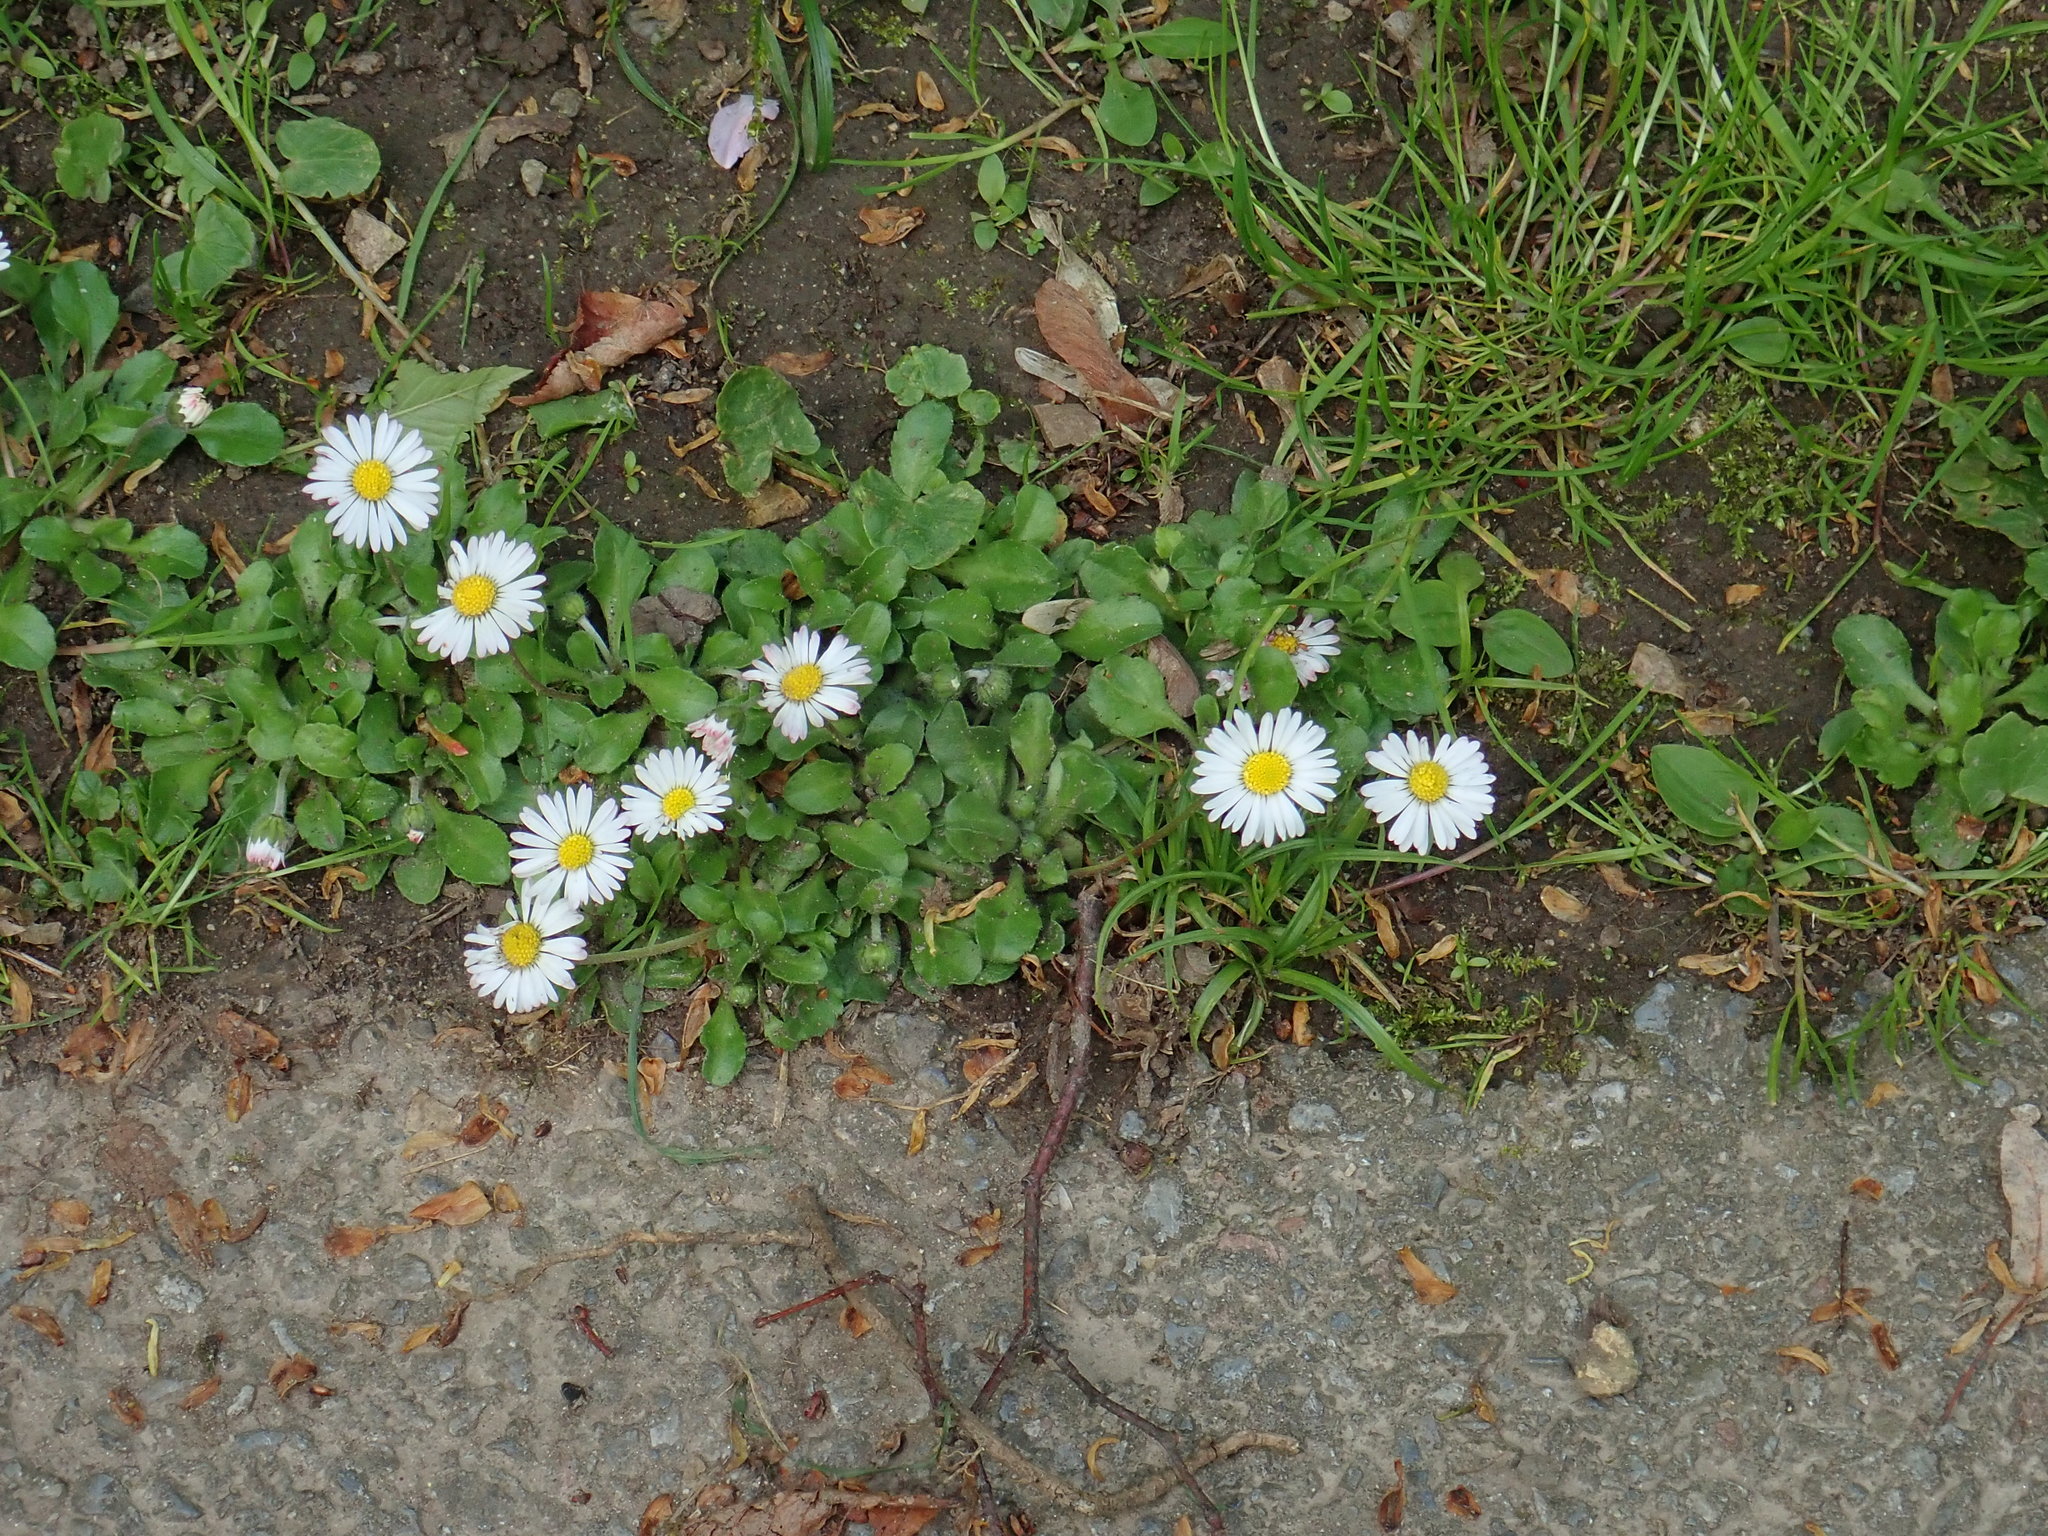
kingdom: Plantae
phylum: Tracheophyta
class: Magnoliopsida
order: Asterales
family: Asteraceae
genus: Bellis
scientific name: Bellis perennis
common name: Lawndaisy
